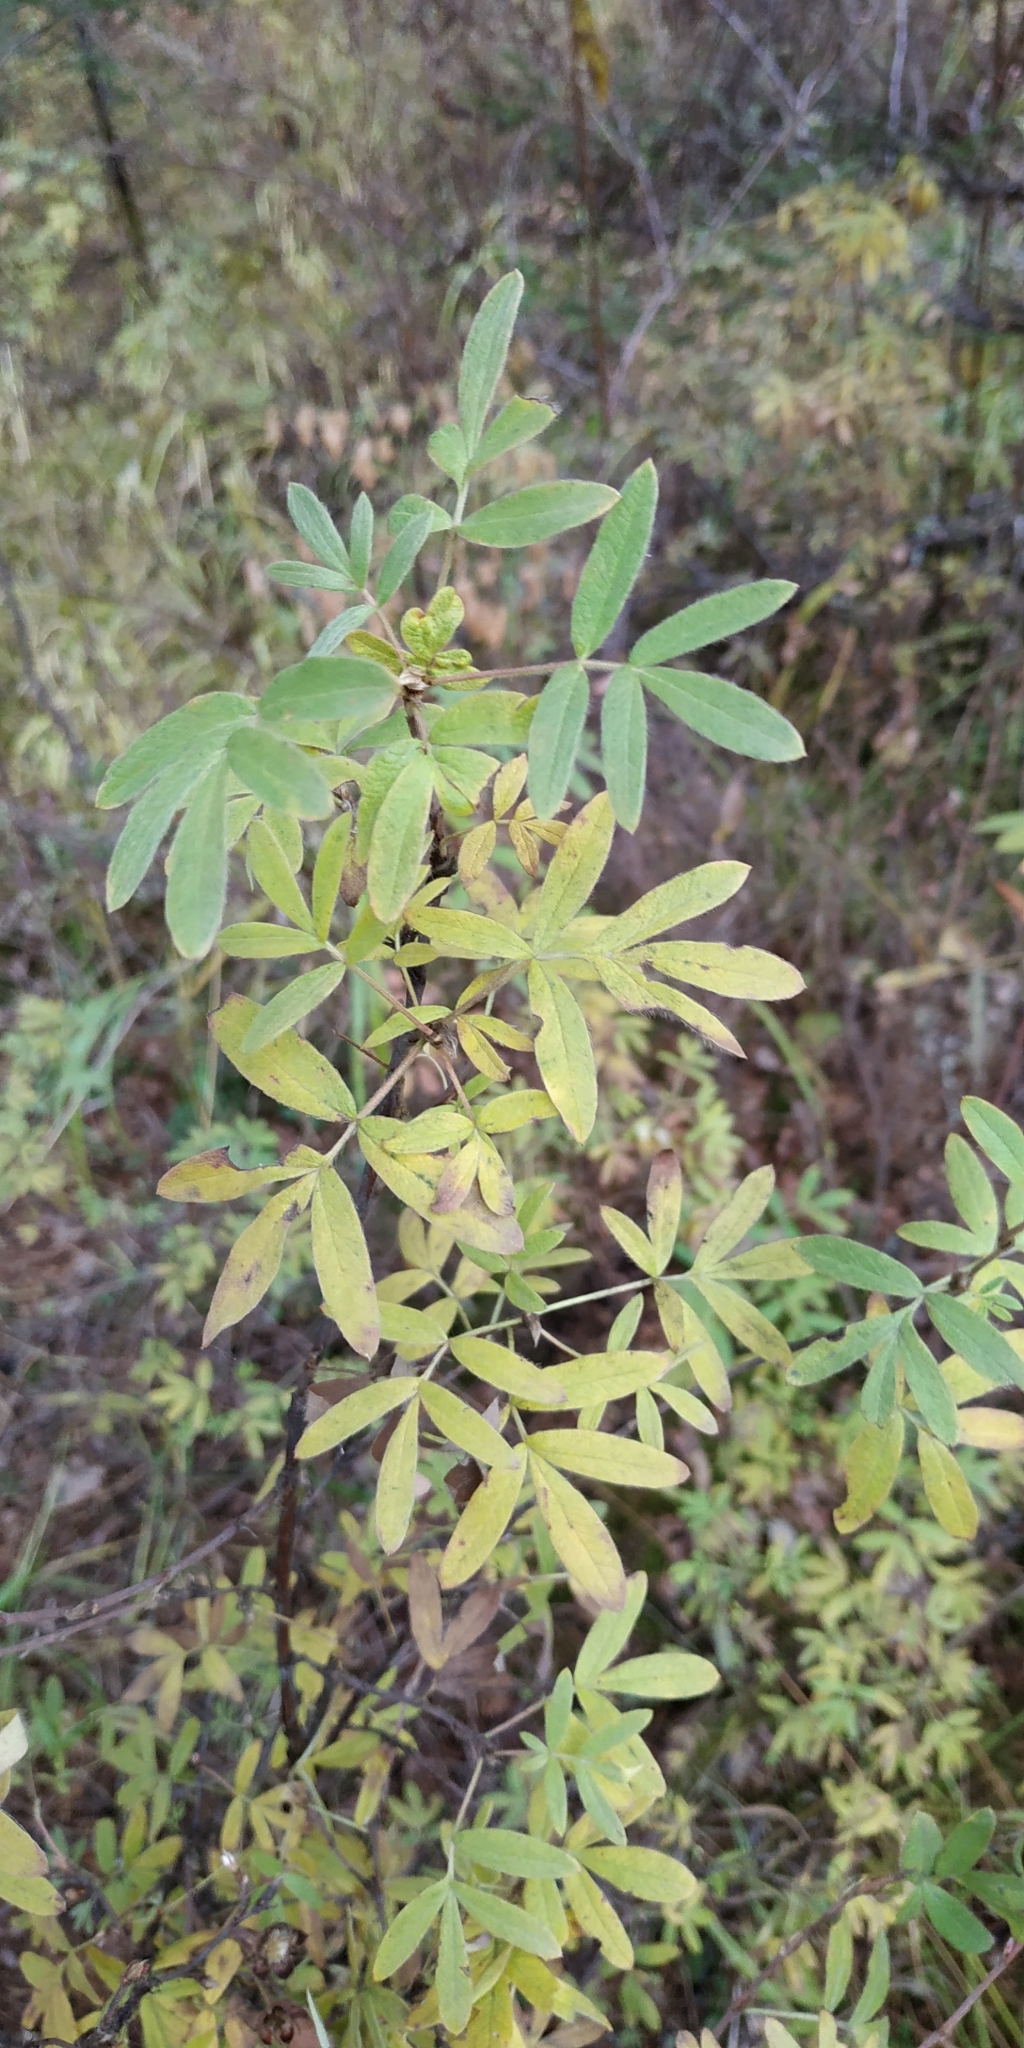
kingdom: Plantae
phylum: Tracheophyta
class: Magnoliopsida
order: Rosales
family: Rosaceae
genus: Dasiphora
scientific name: Dasiphora fruticosa
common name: Shrubby cinquefoil
